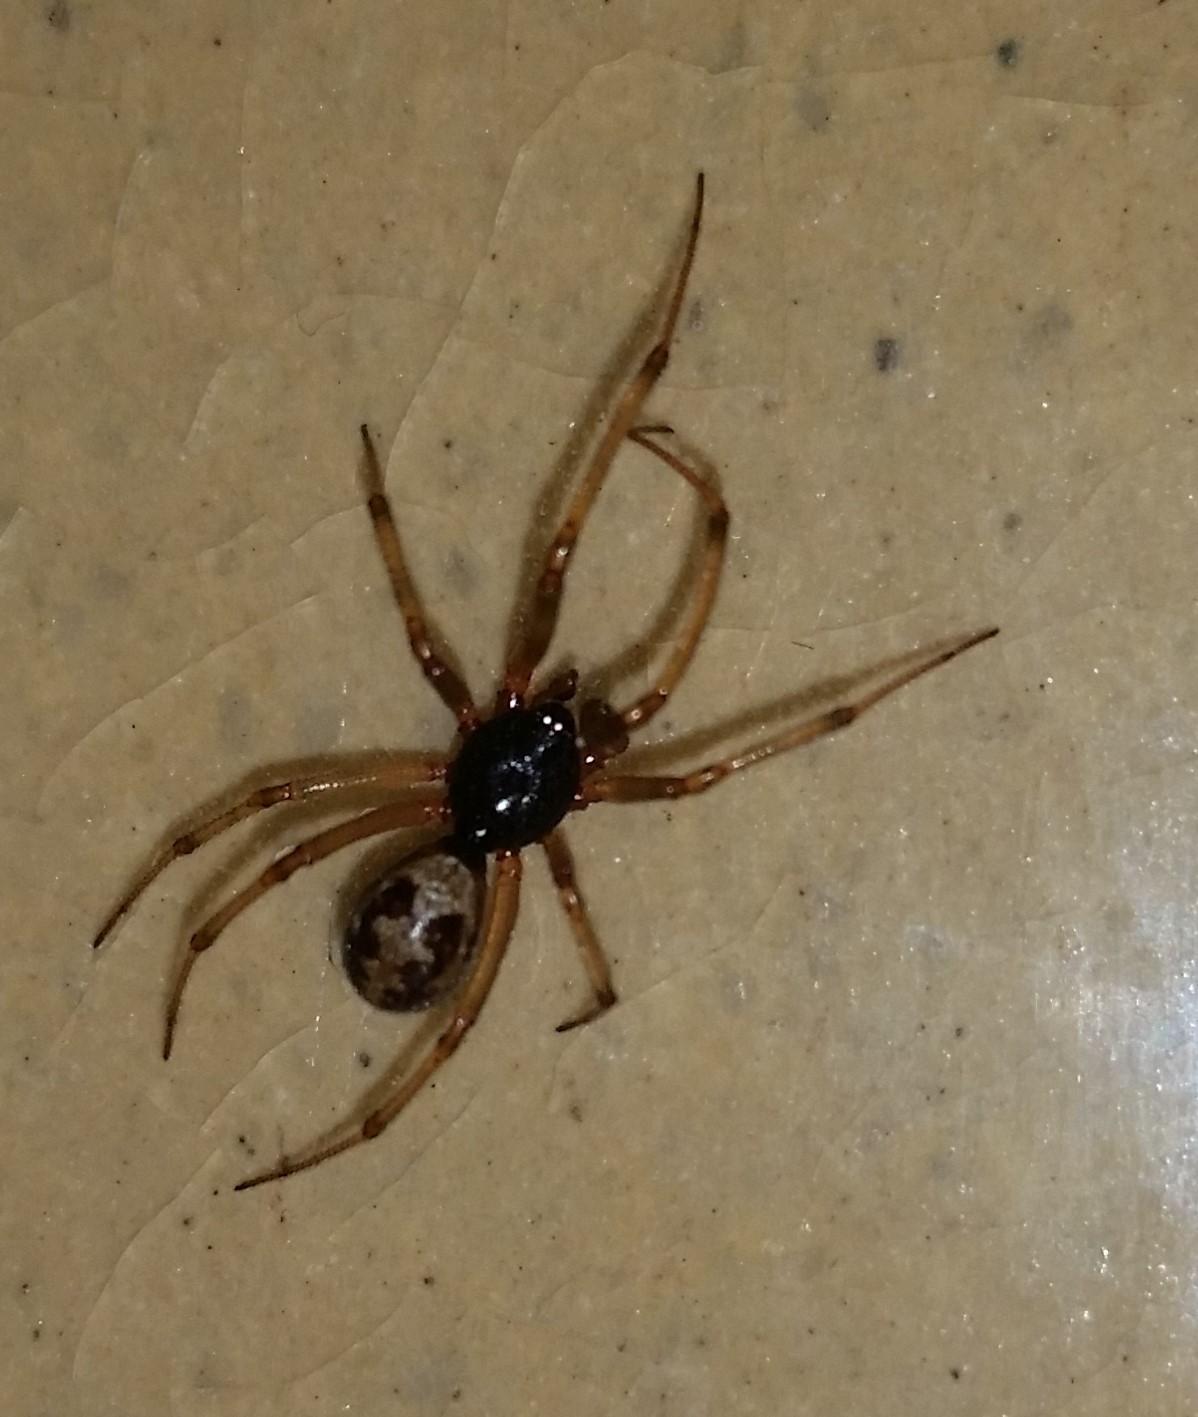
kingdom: Animalia
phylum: Arthropoda
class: Arachnida
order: Araneae
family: Theridiidae
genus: Steatoda
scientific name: Steatoda triangulosa
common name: Triangulate bud spider
